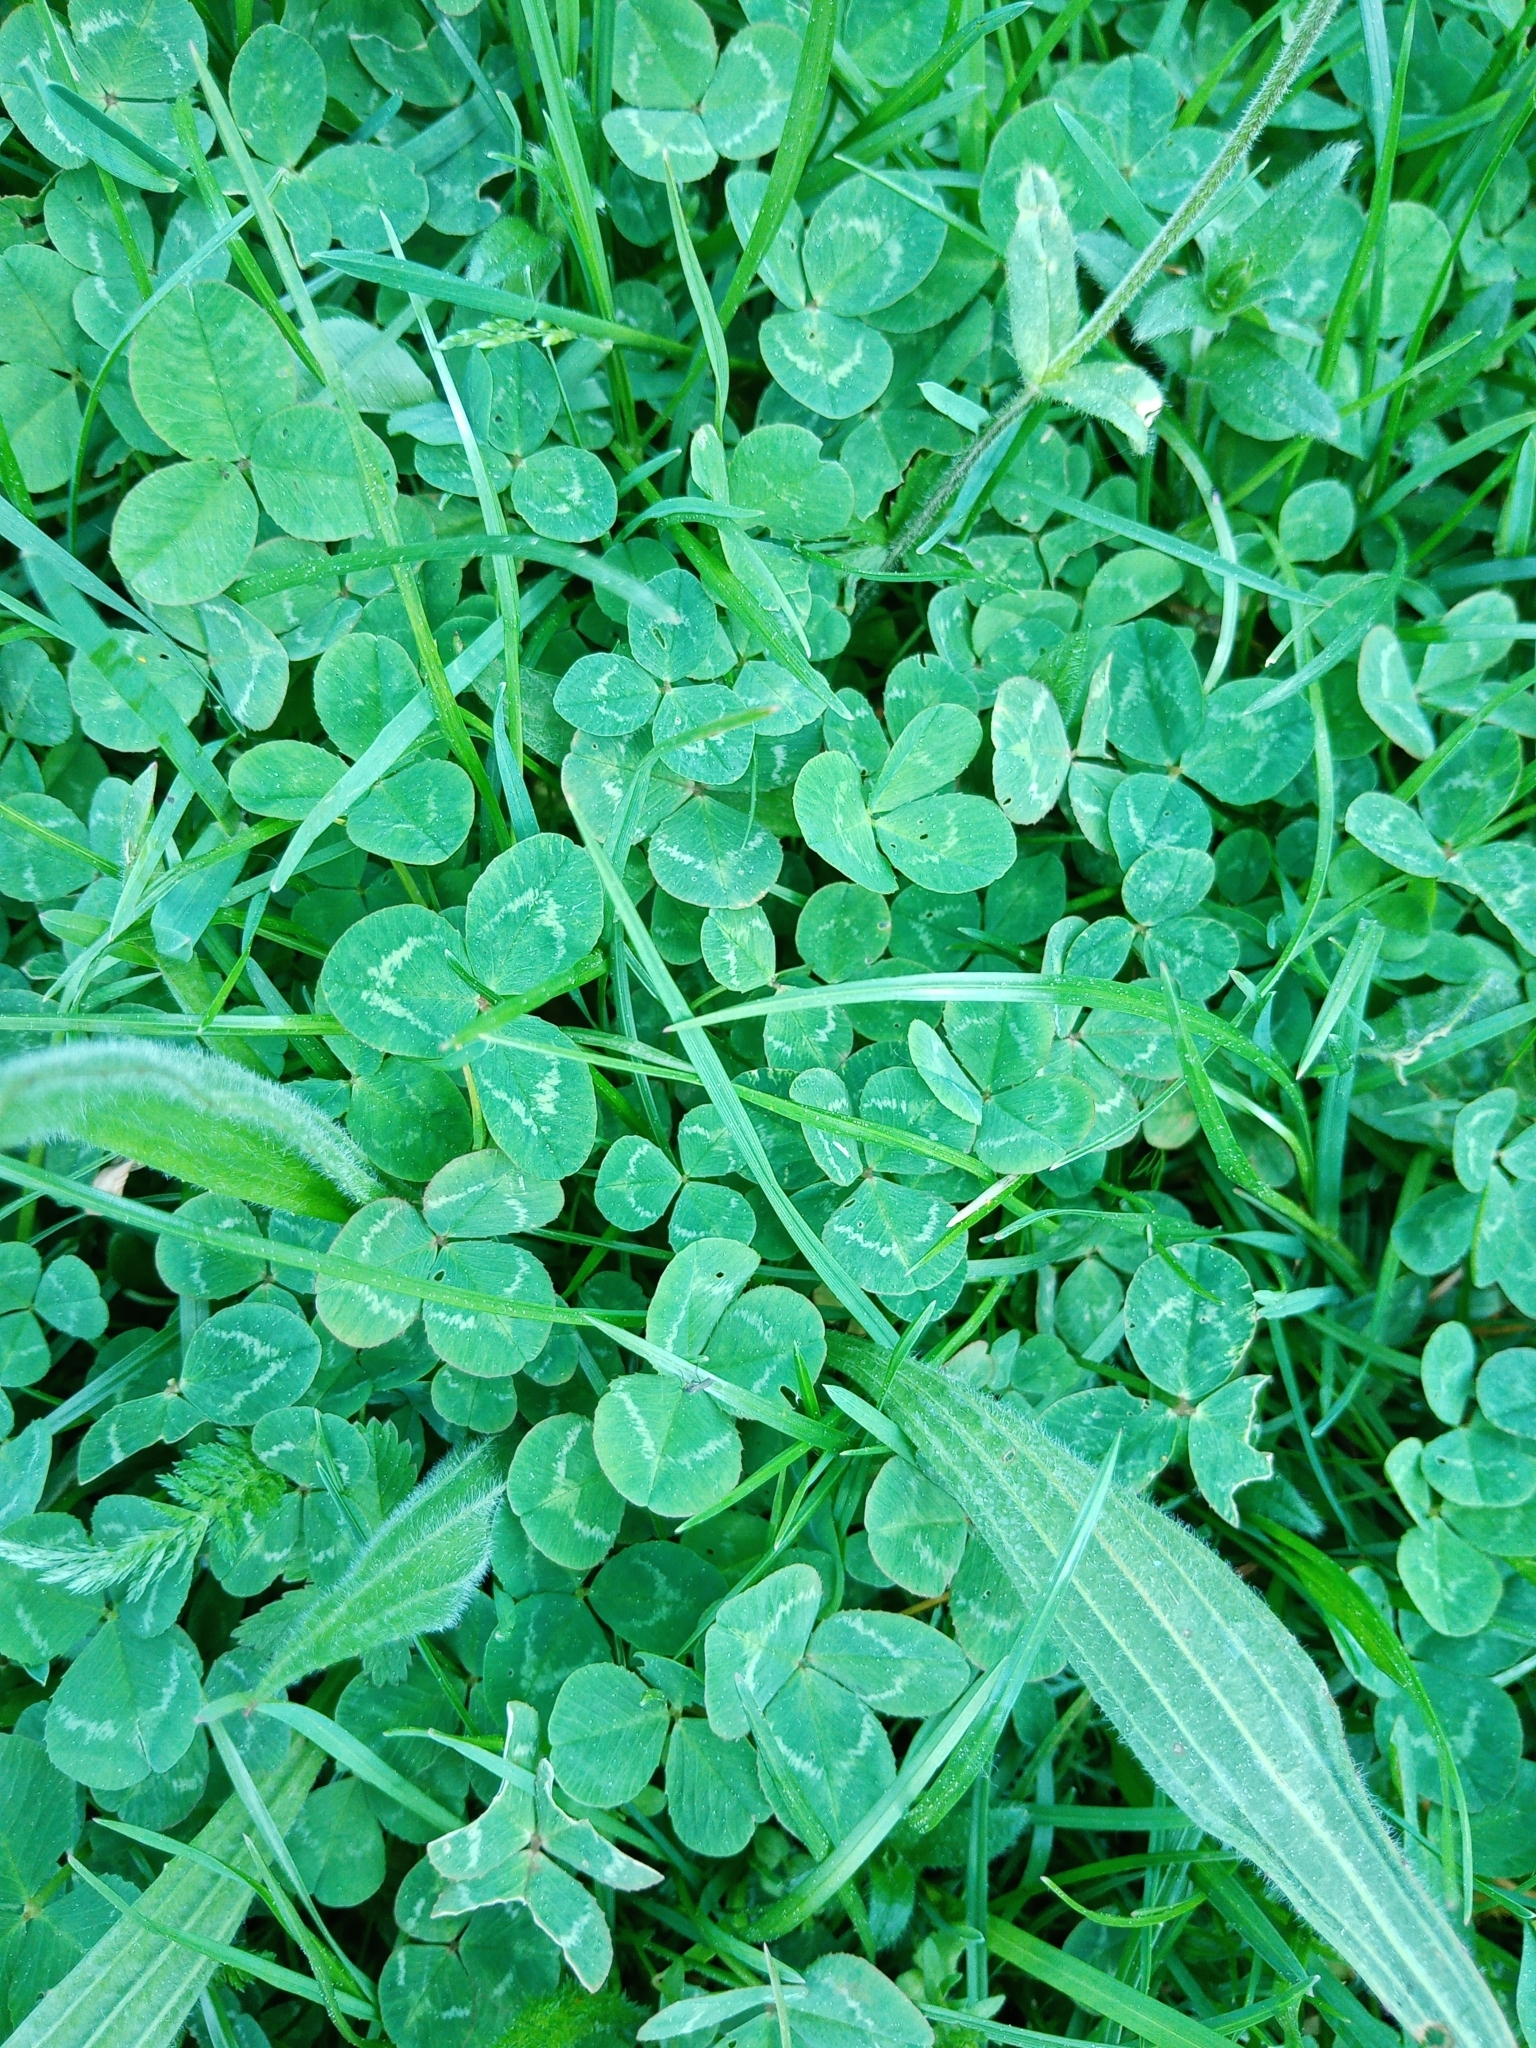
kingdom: Plantae
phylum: Tracheophyta
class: Magnoliopsida
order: Fabales
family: Fabaceae
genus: Trifolium
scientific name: Trifolium repens
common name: White clover
